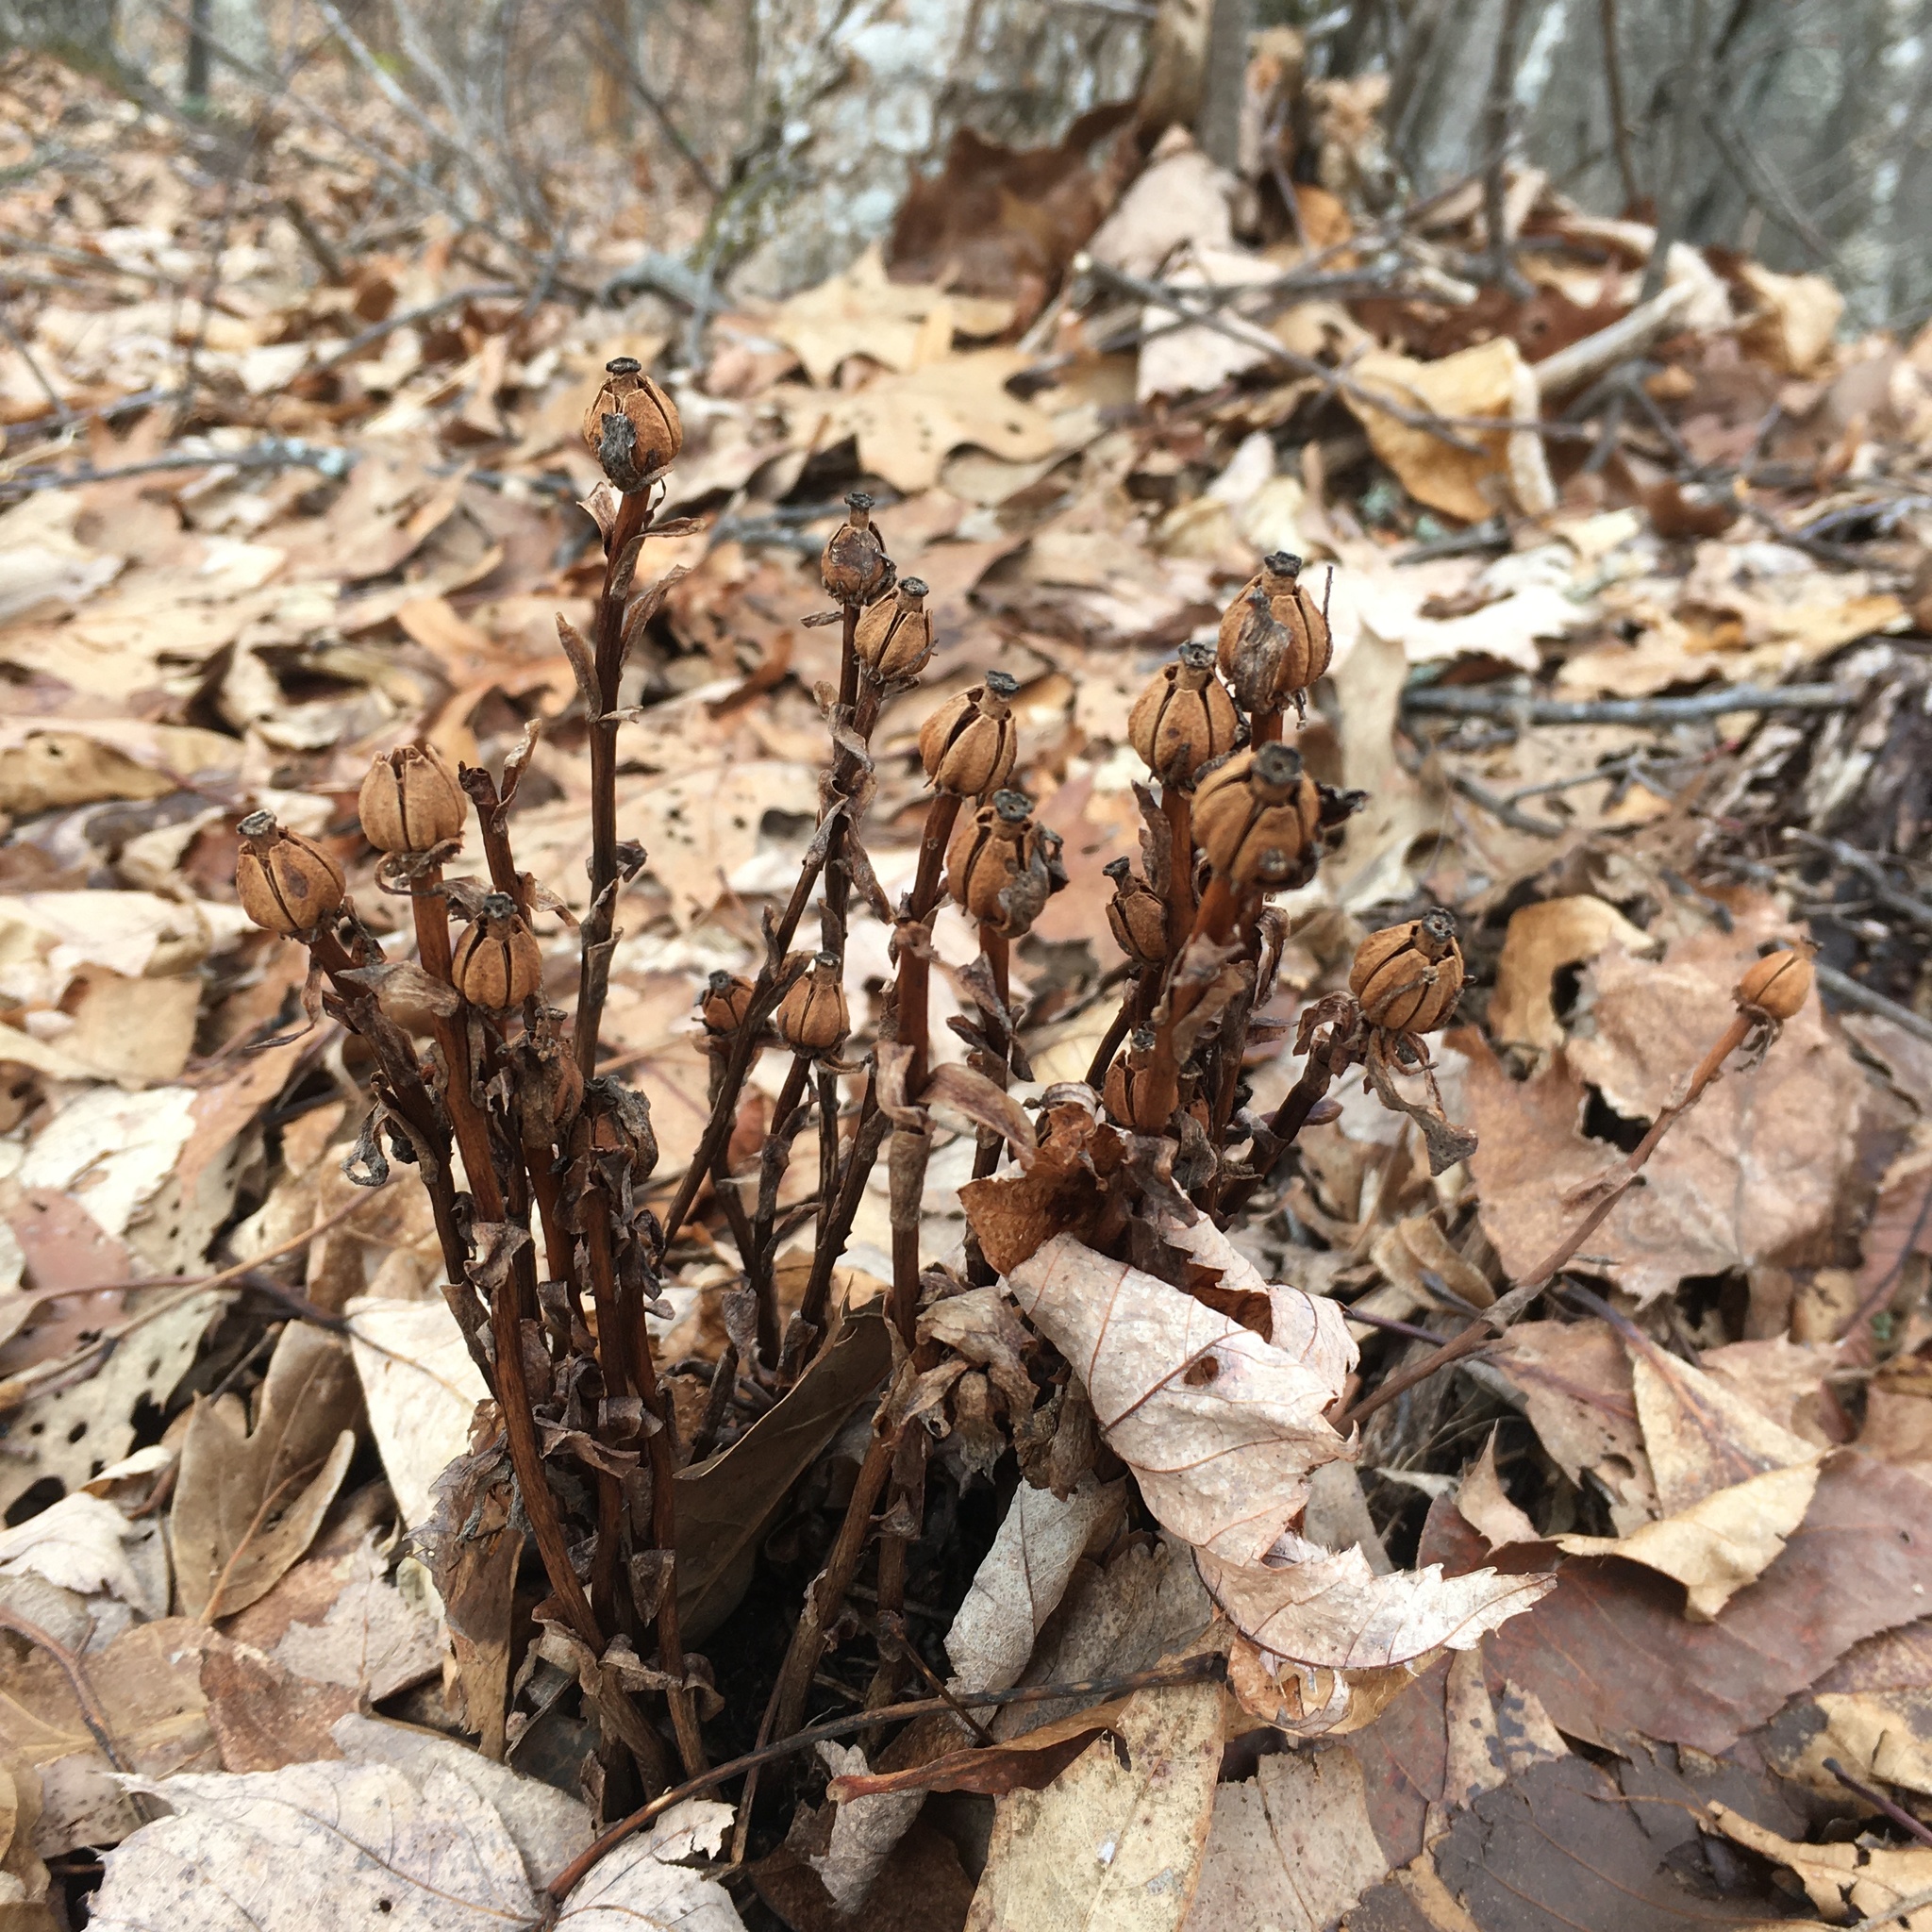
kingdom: Plantae
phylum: Tracheophyta
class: Magnoliopsida
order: Ericales
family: Ericaceae
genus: Monotropa
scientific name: Monotropa uniflora
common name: Convulsion root
